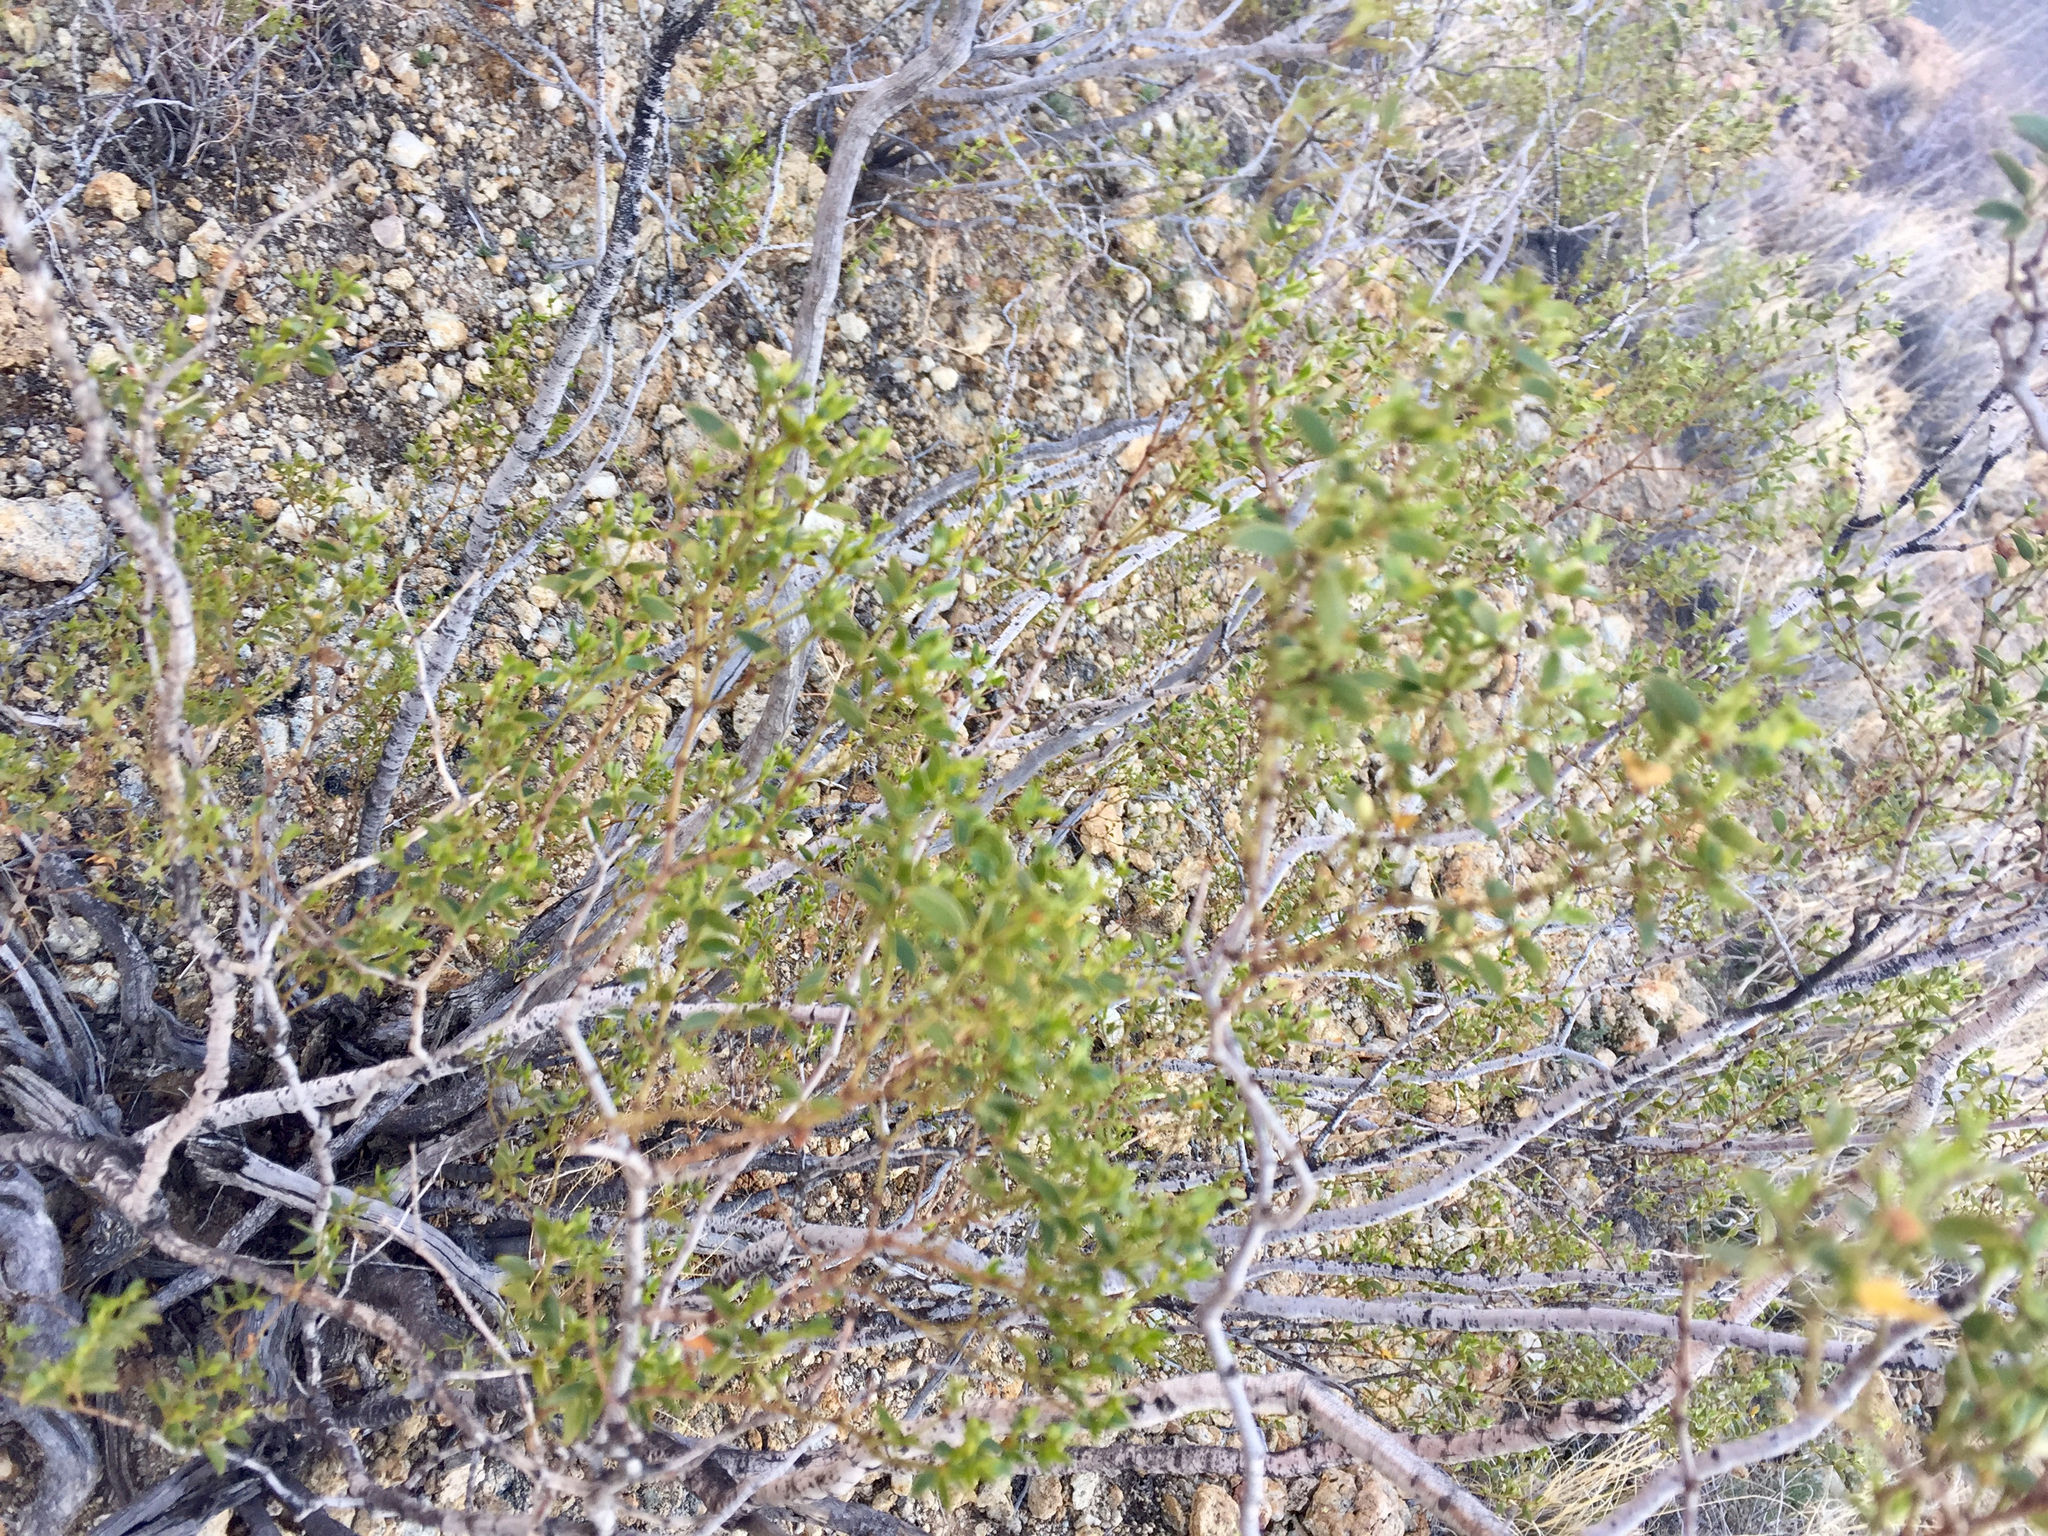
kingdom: Plantae
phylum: Tracheophyta
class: Magnoliopsida
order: Zygophyllales
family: Zygophyllaceae
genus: Larrea
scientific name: Larrea tridentata
